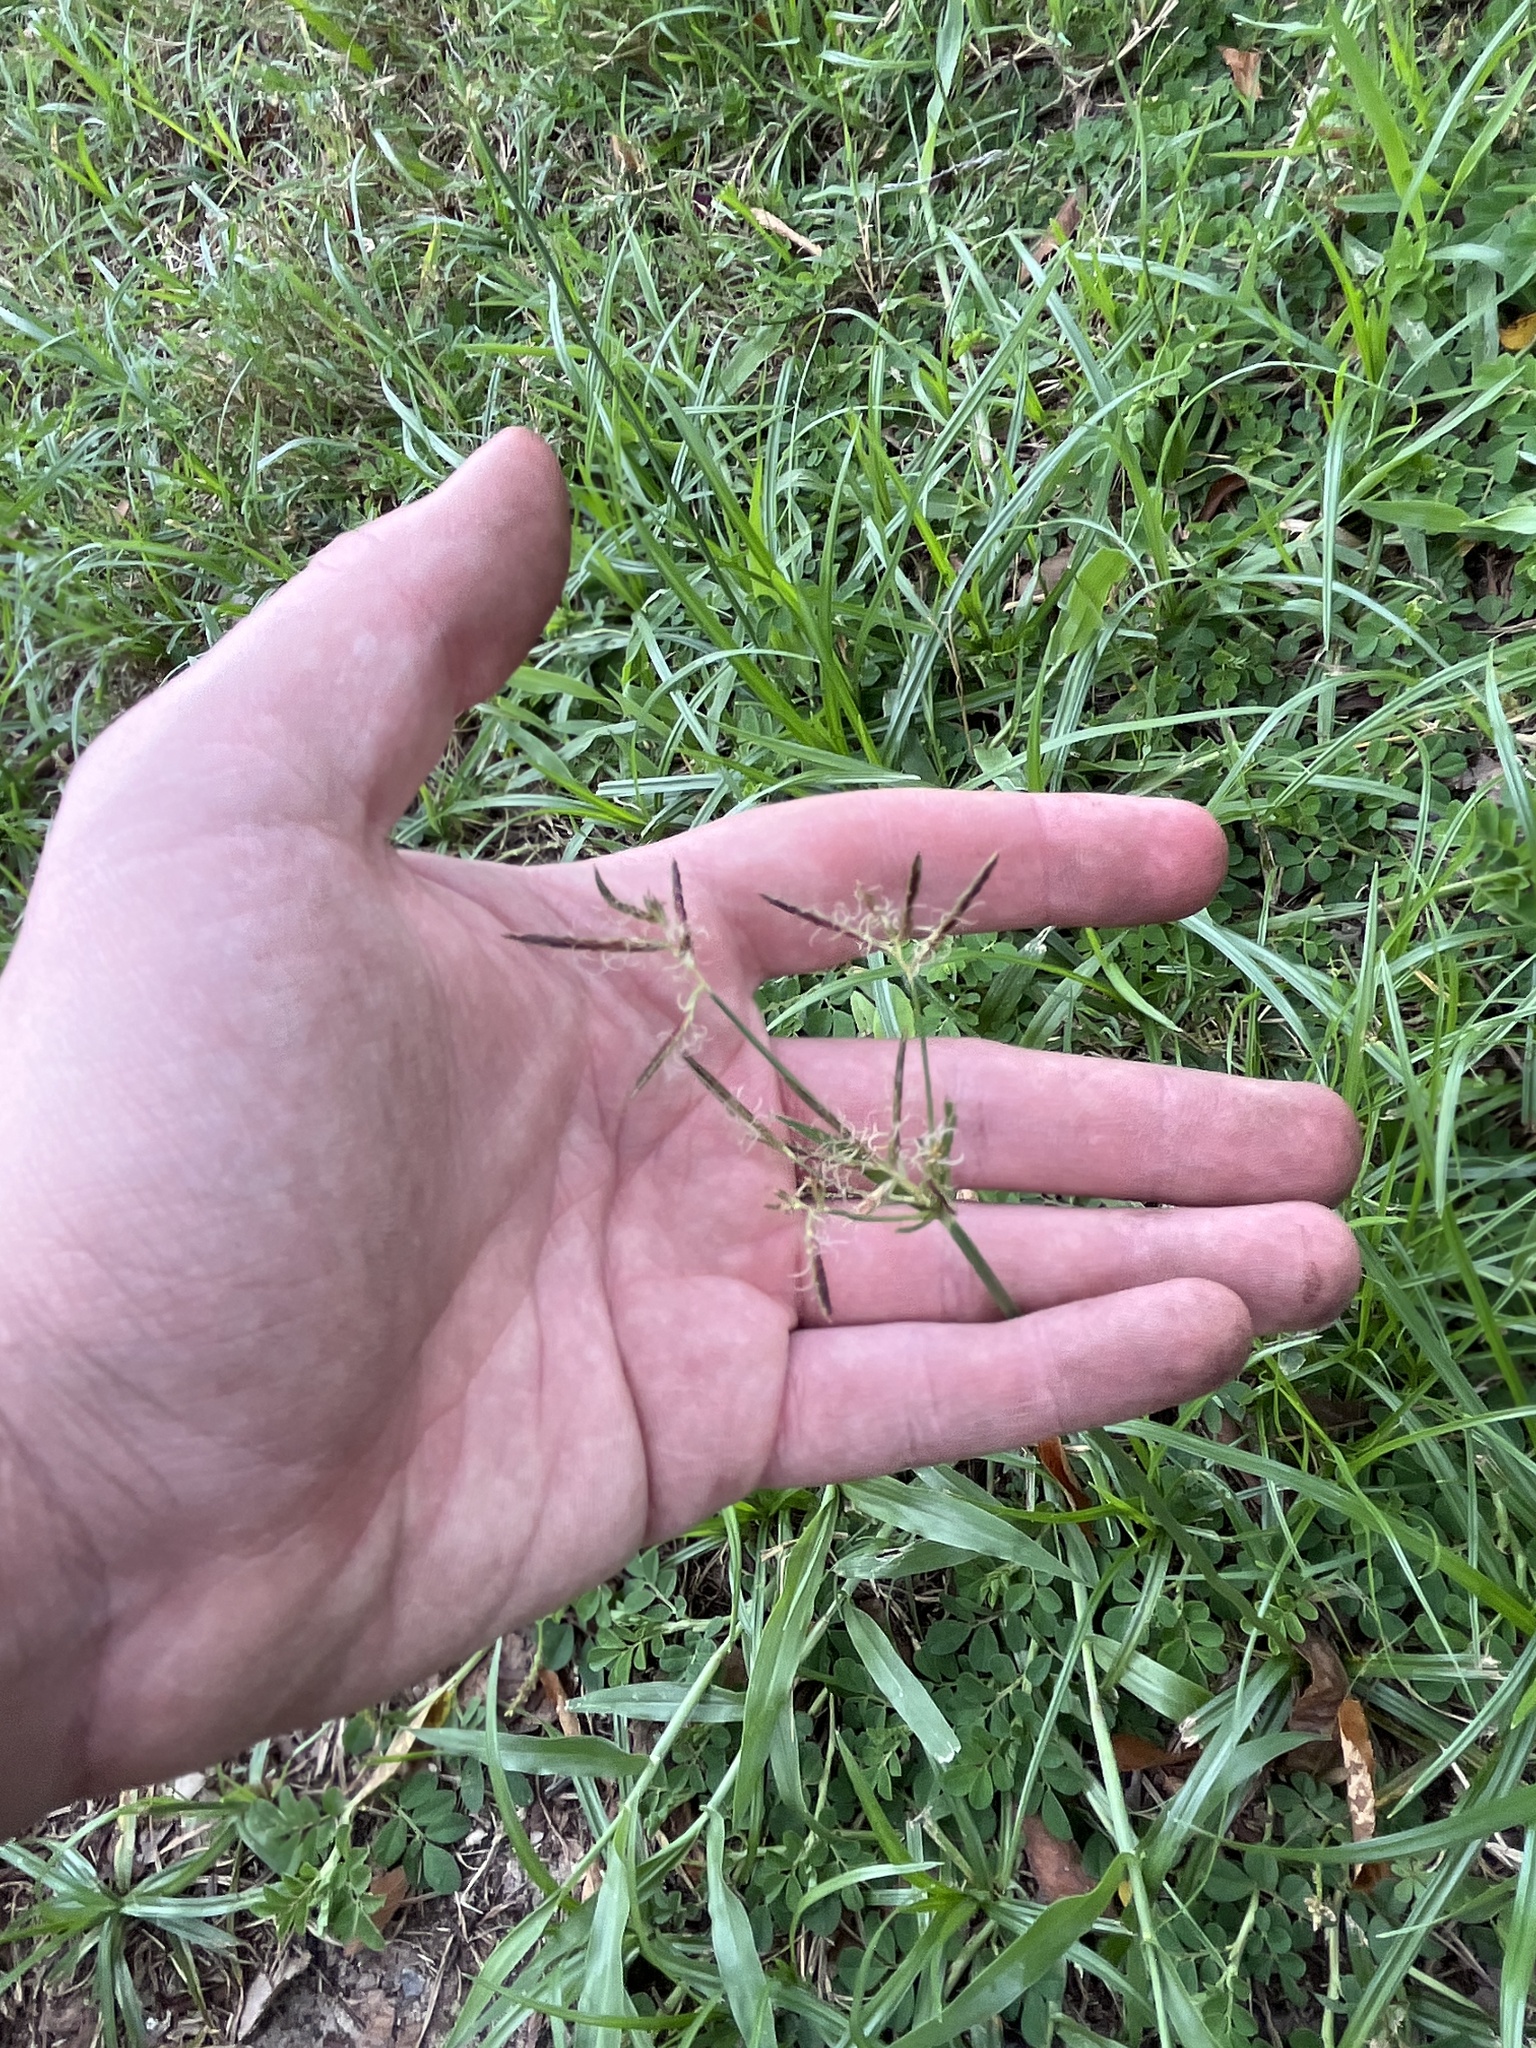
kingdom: Plantae
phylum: Tracheophyta
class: Liliopsida
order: Poales
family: Cyperaceae
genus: Cyperus
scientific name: Cyperus rotundus
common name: Nutgrass
